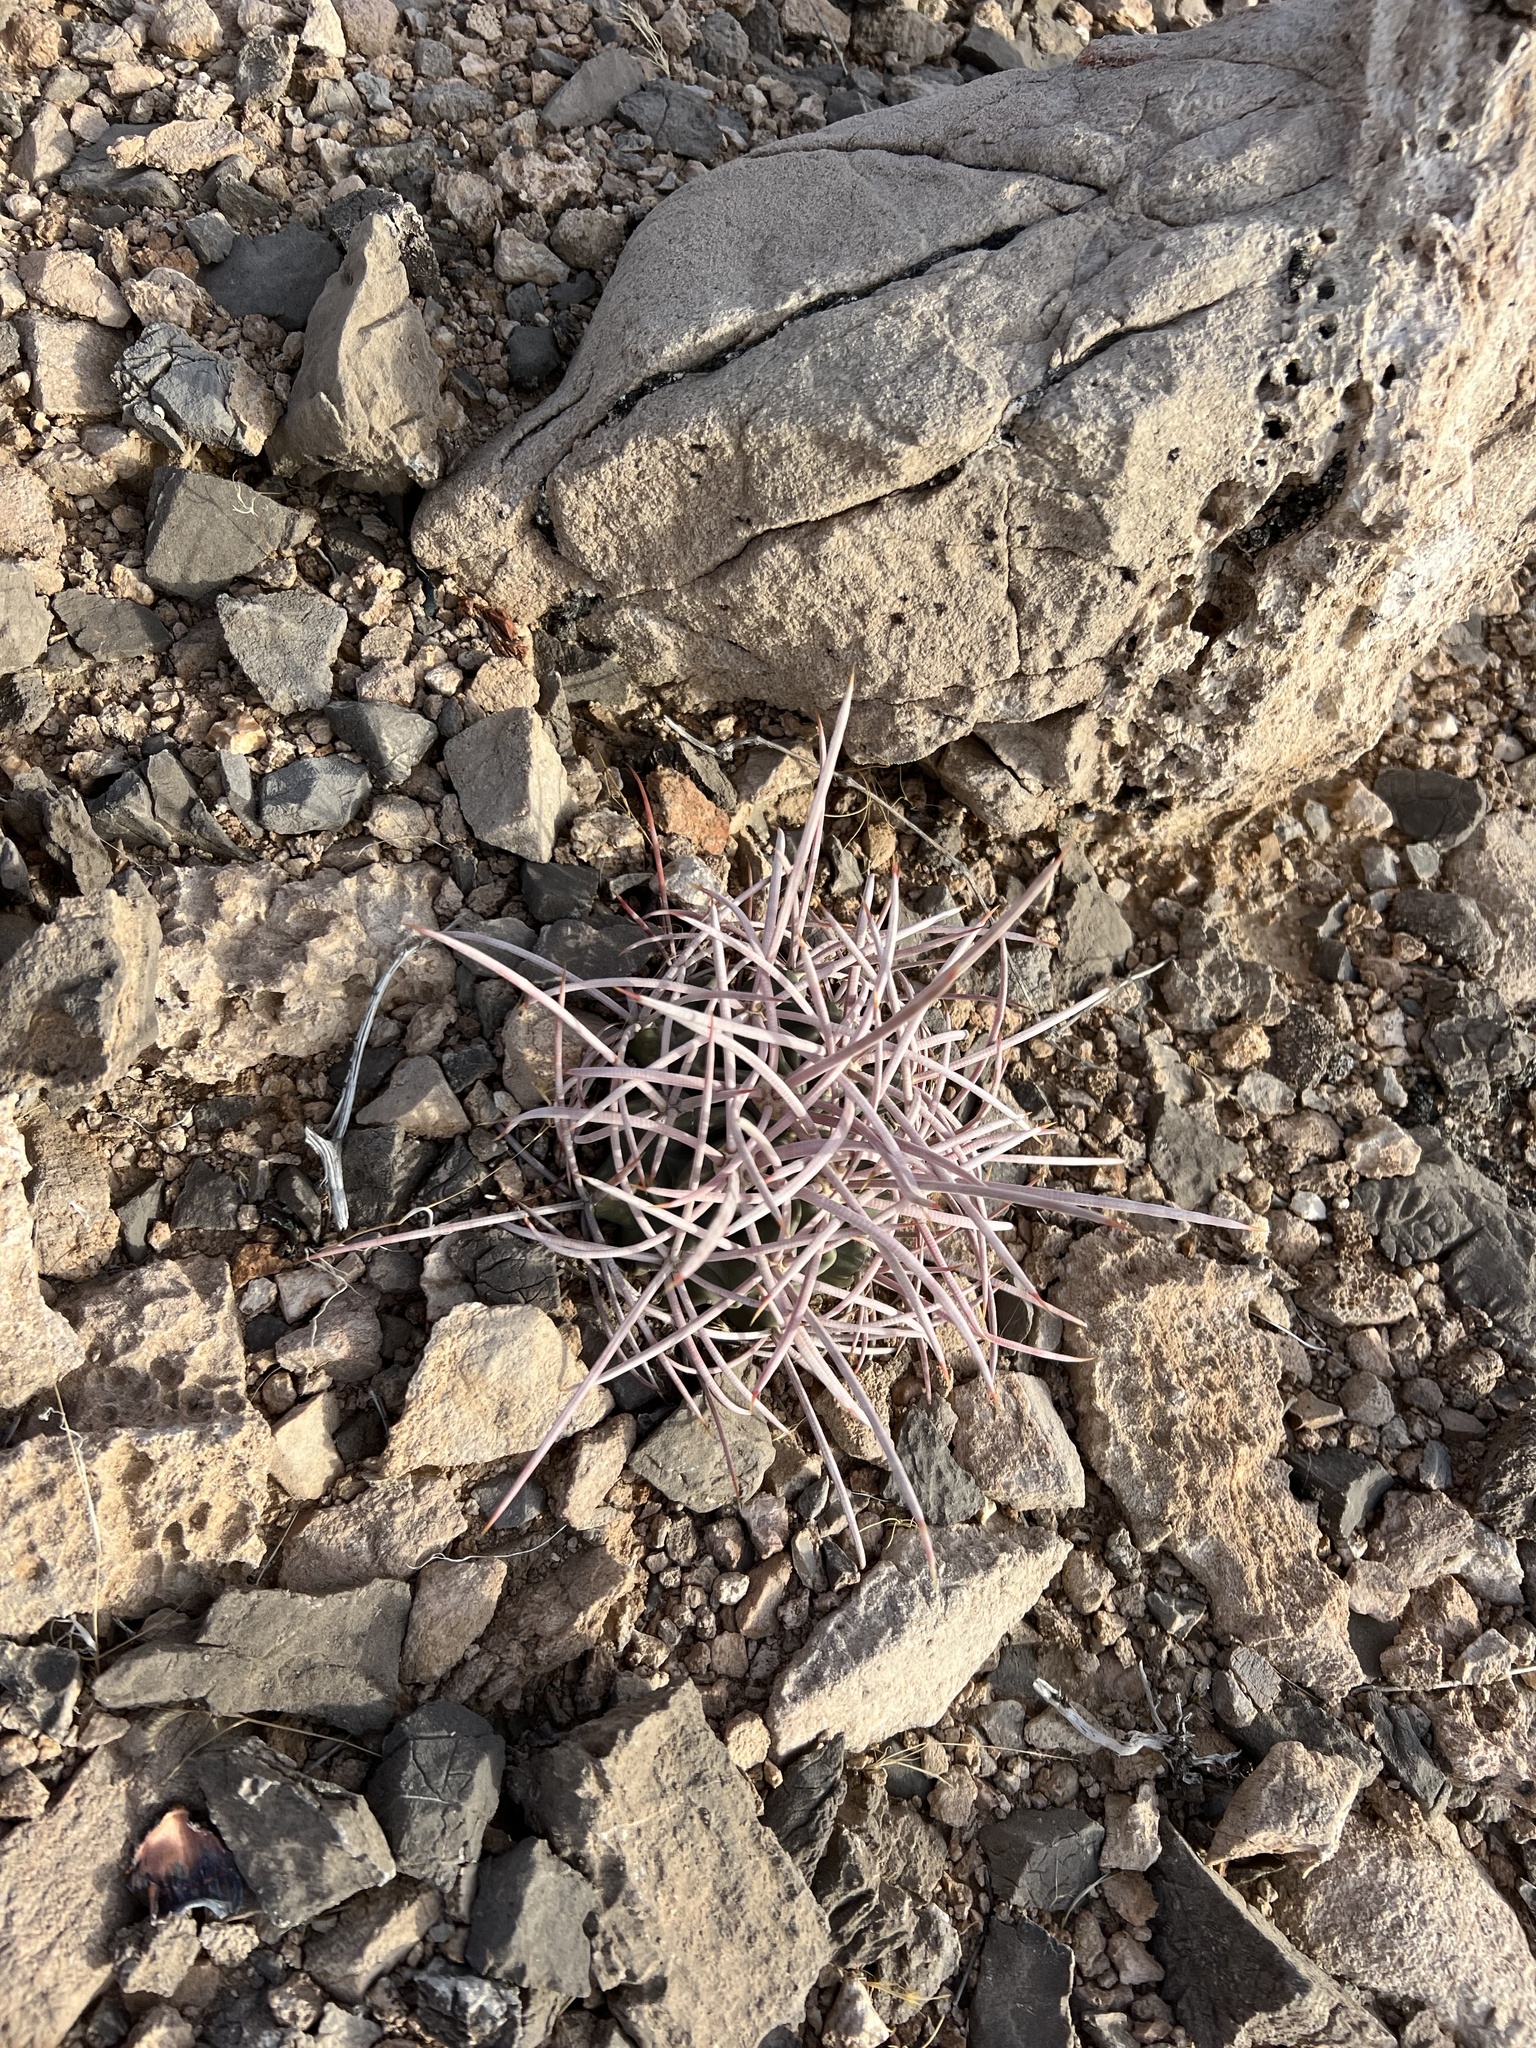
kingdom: Plantae
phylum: Tracheophyta
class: Magnoliopsida
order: Caryophyllales
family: Cactaceae
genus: Echinocactus
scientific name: Echinocactus polycephalus
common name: Cottontop cactus
